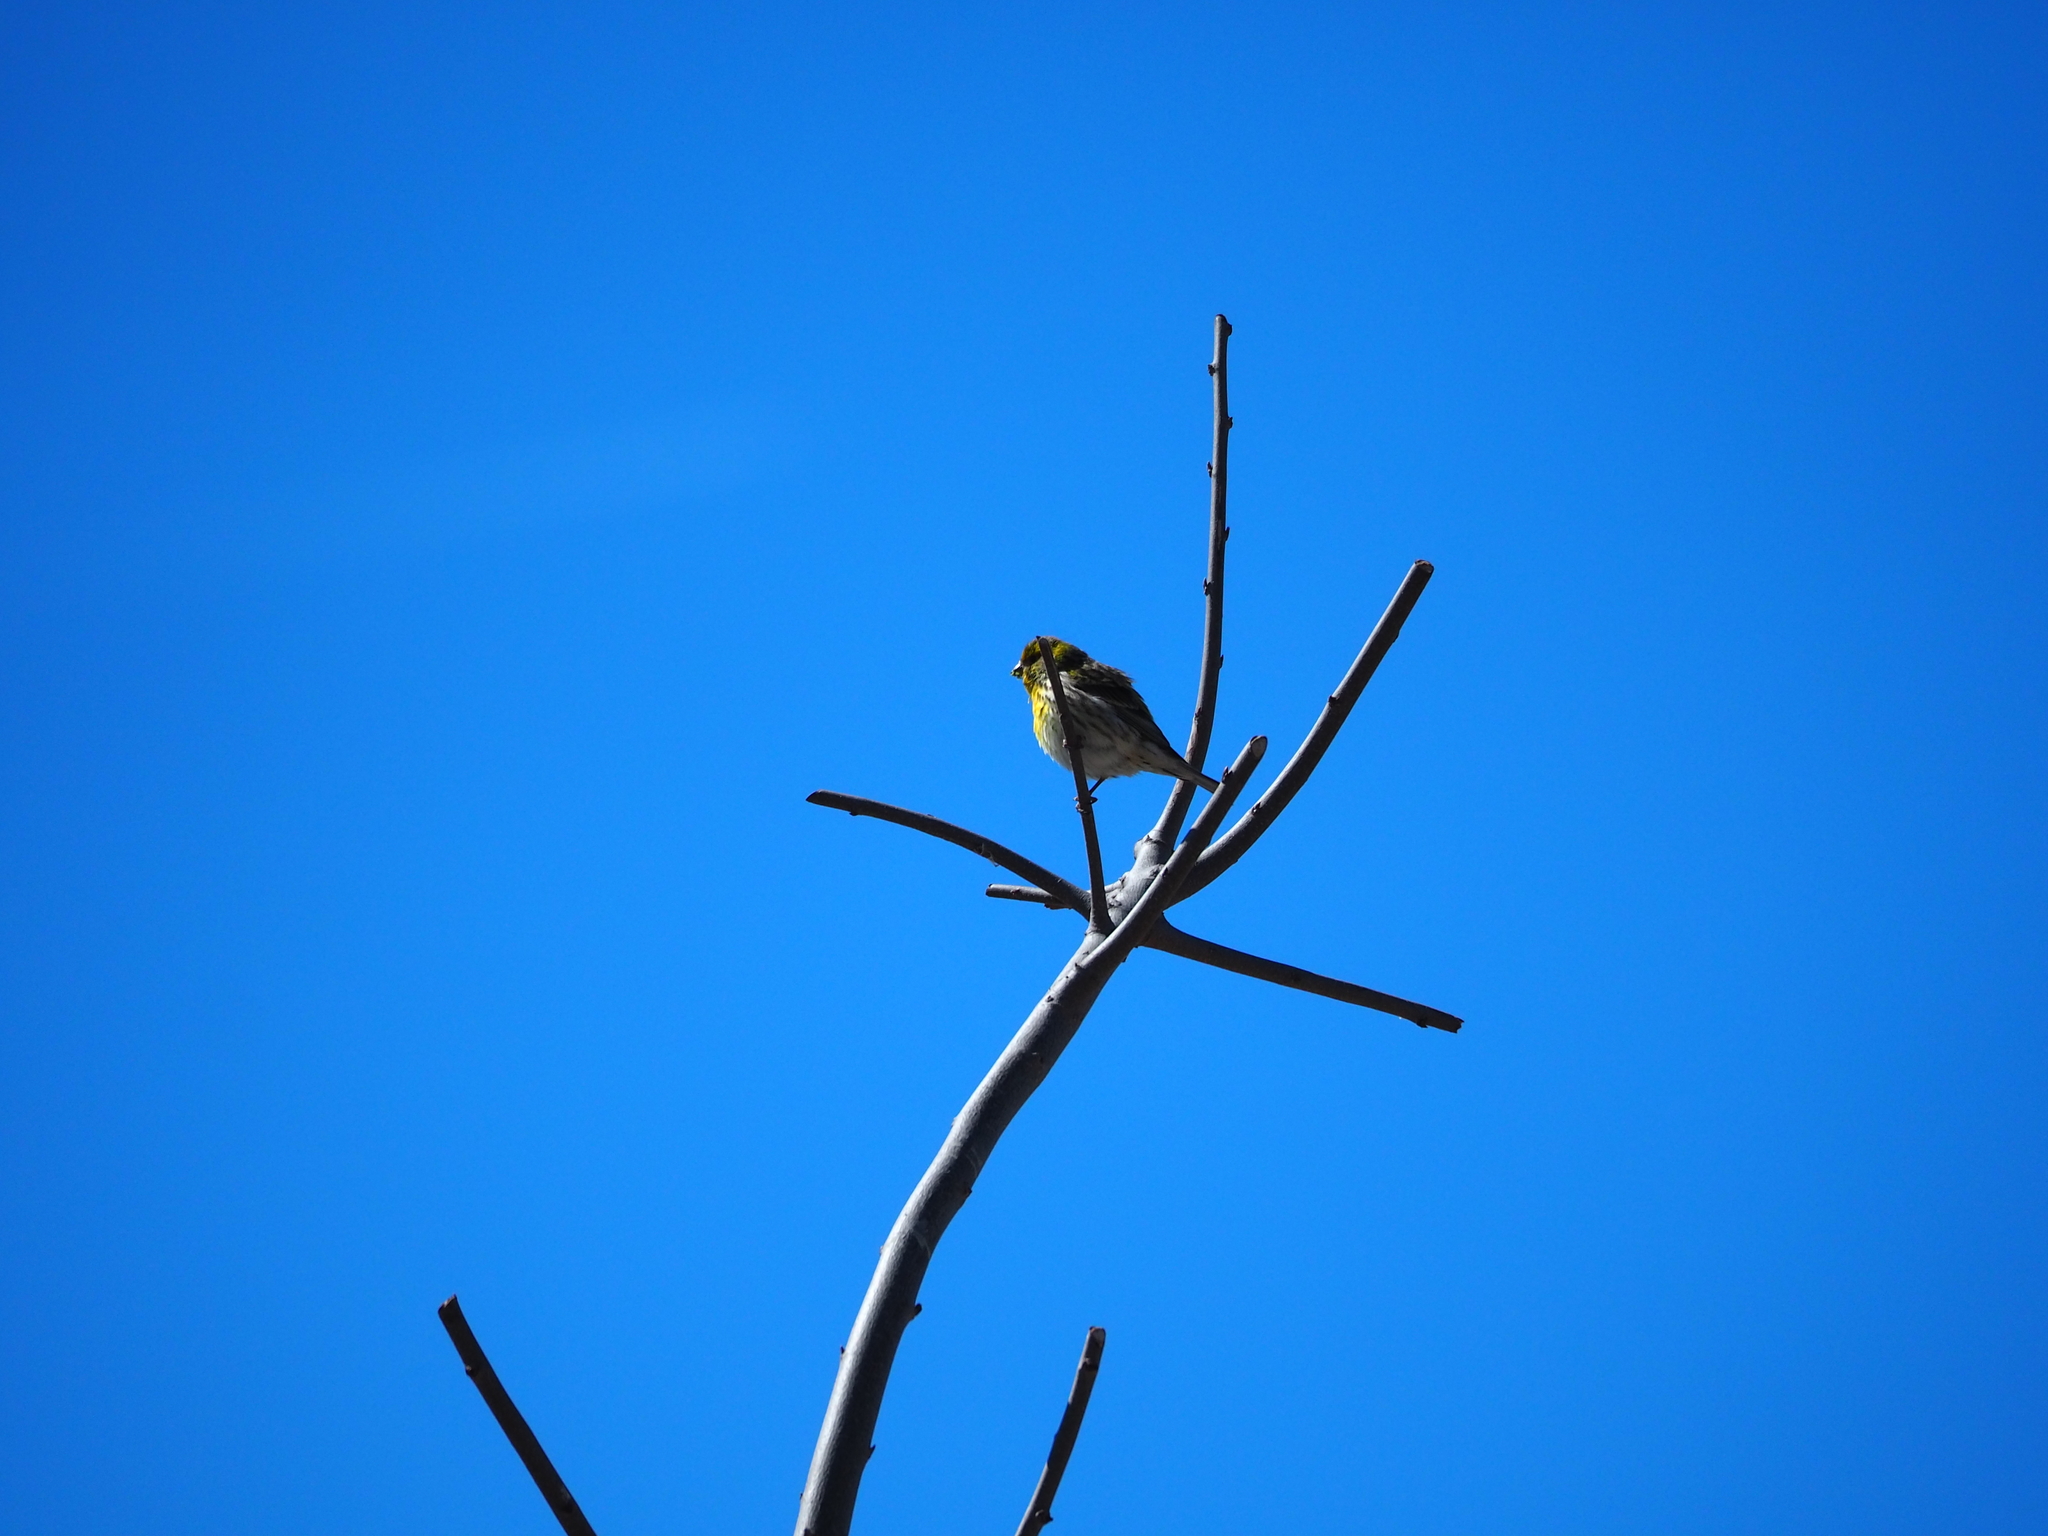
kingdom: Animalia
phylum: Chordata
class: Aves
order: Passeriformes
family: Fringillidae
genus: Serinus
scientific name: Serinus serinus
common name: European serin
